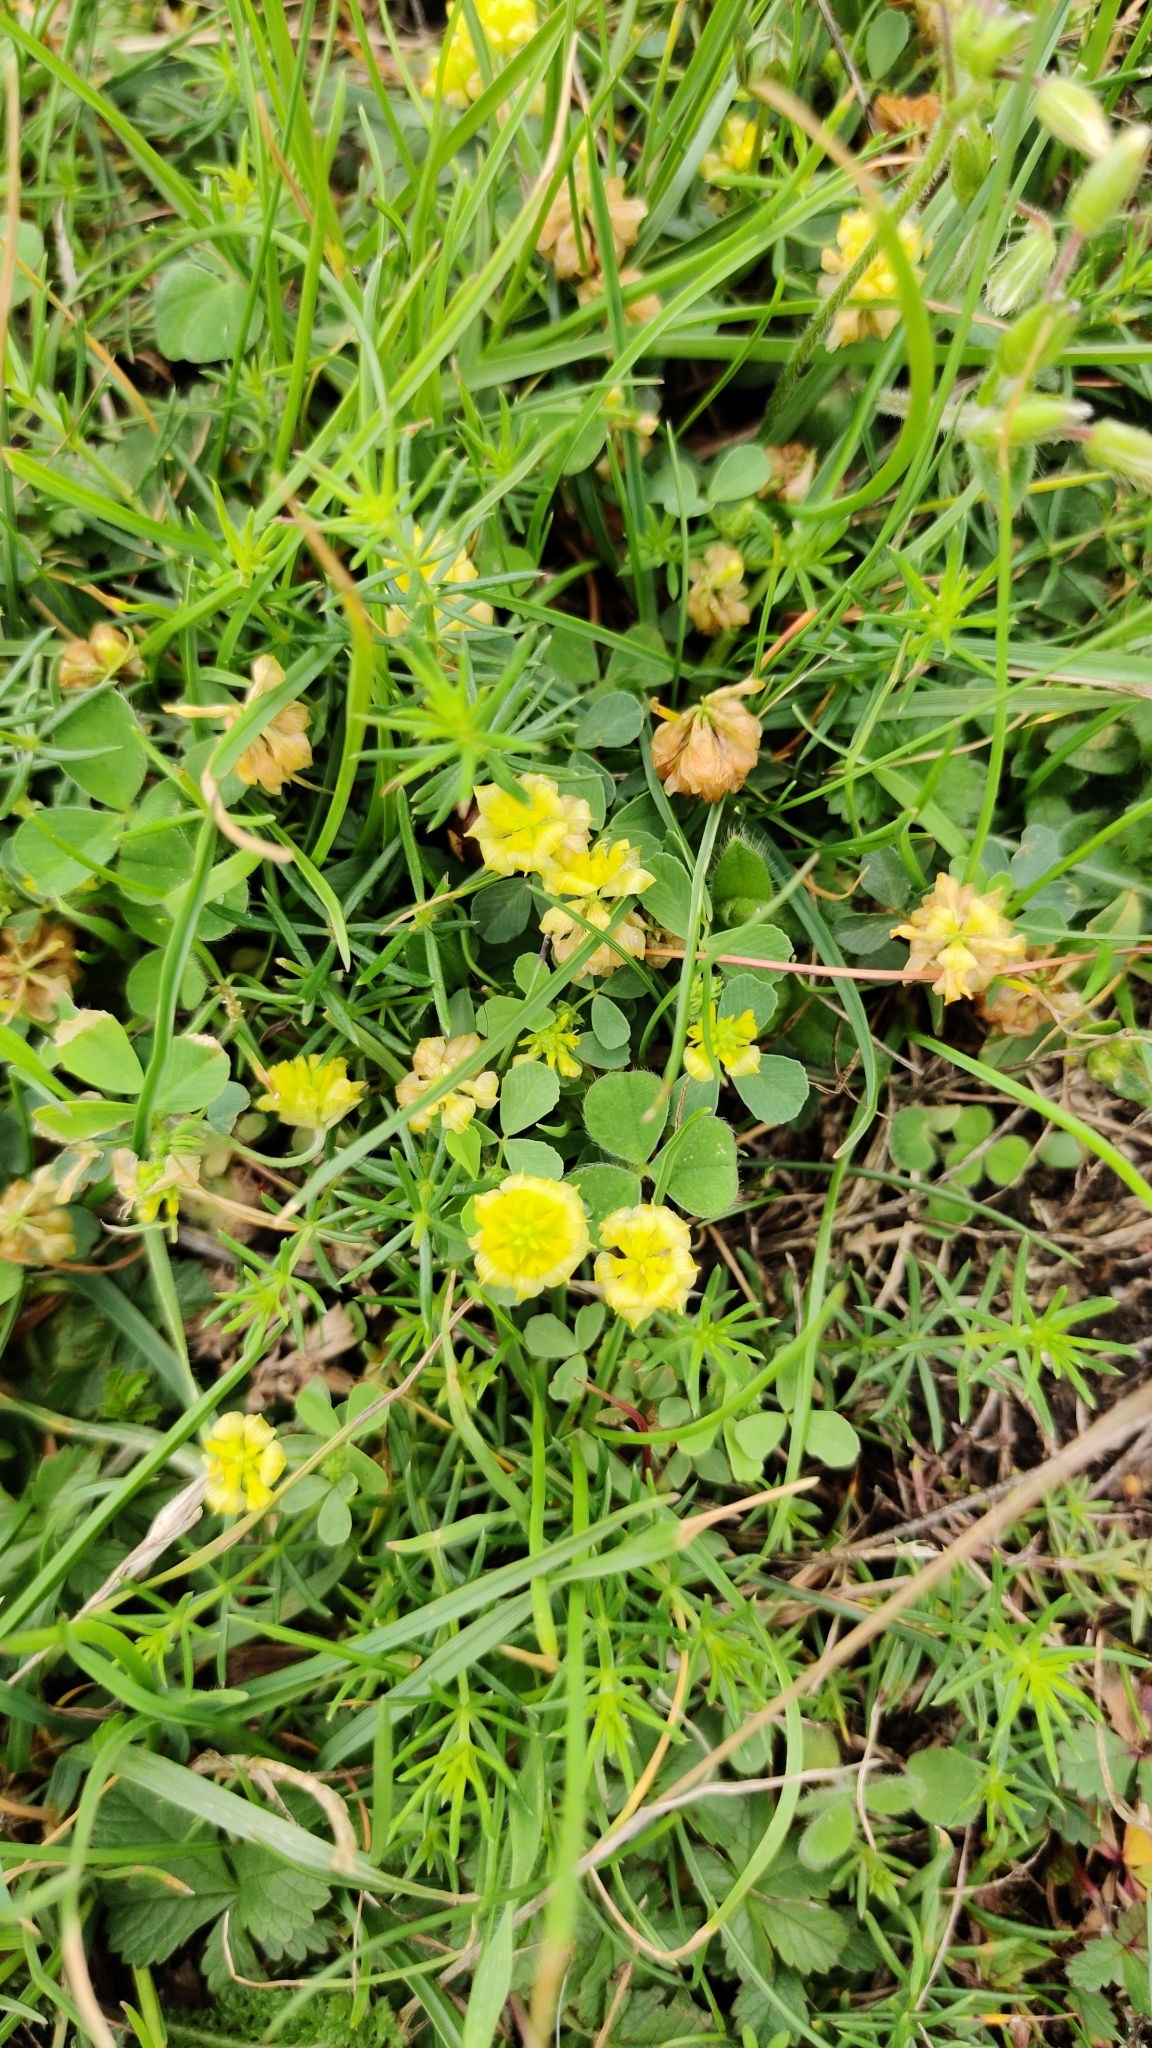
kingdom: Plantae
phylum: Tracheophyta
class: Magnoliopsida
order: Fabales
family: Fabaceae
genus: Trifolium
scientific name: Trifolium campestre
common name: Field clover
